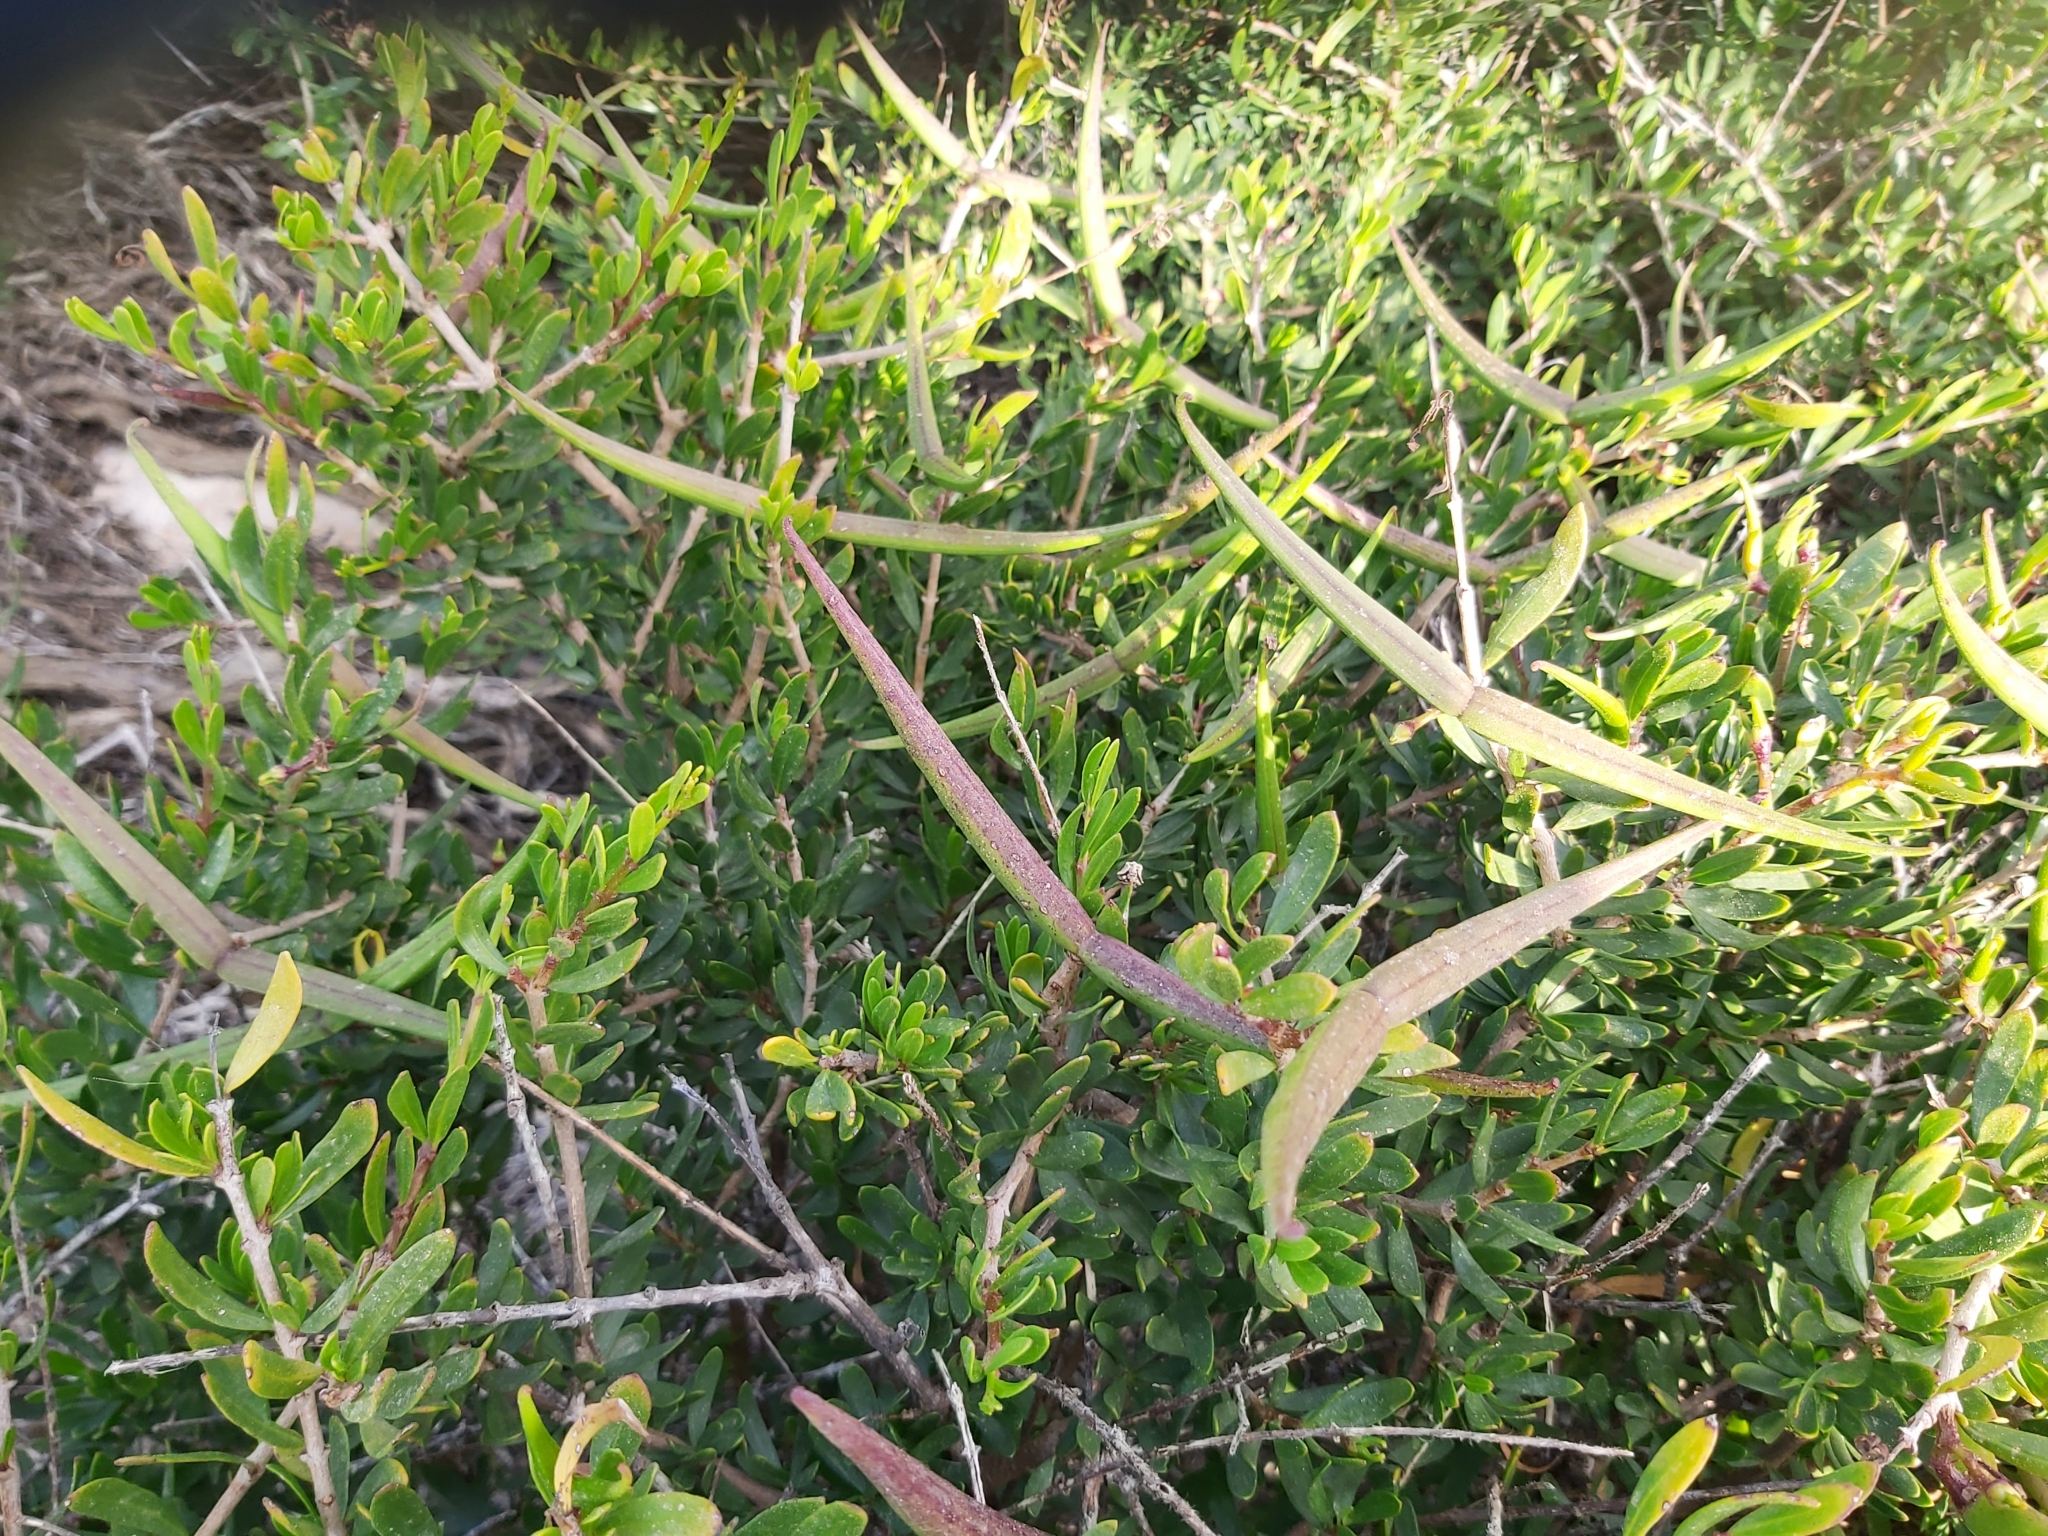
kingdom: Plantae
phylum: Tracheophyta
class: Magnoliopsida
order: Gentianales
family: Apocynaceae
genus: Periploca
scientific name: Periploca laevigata
